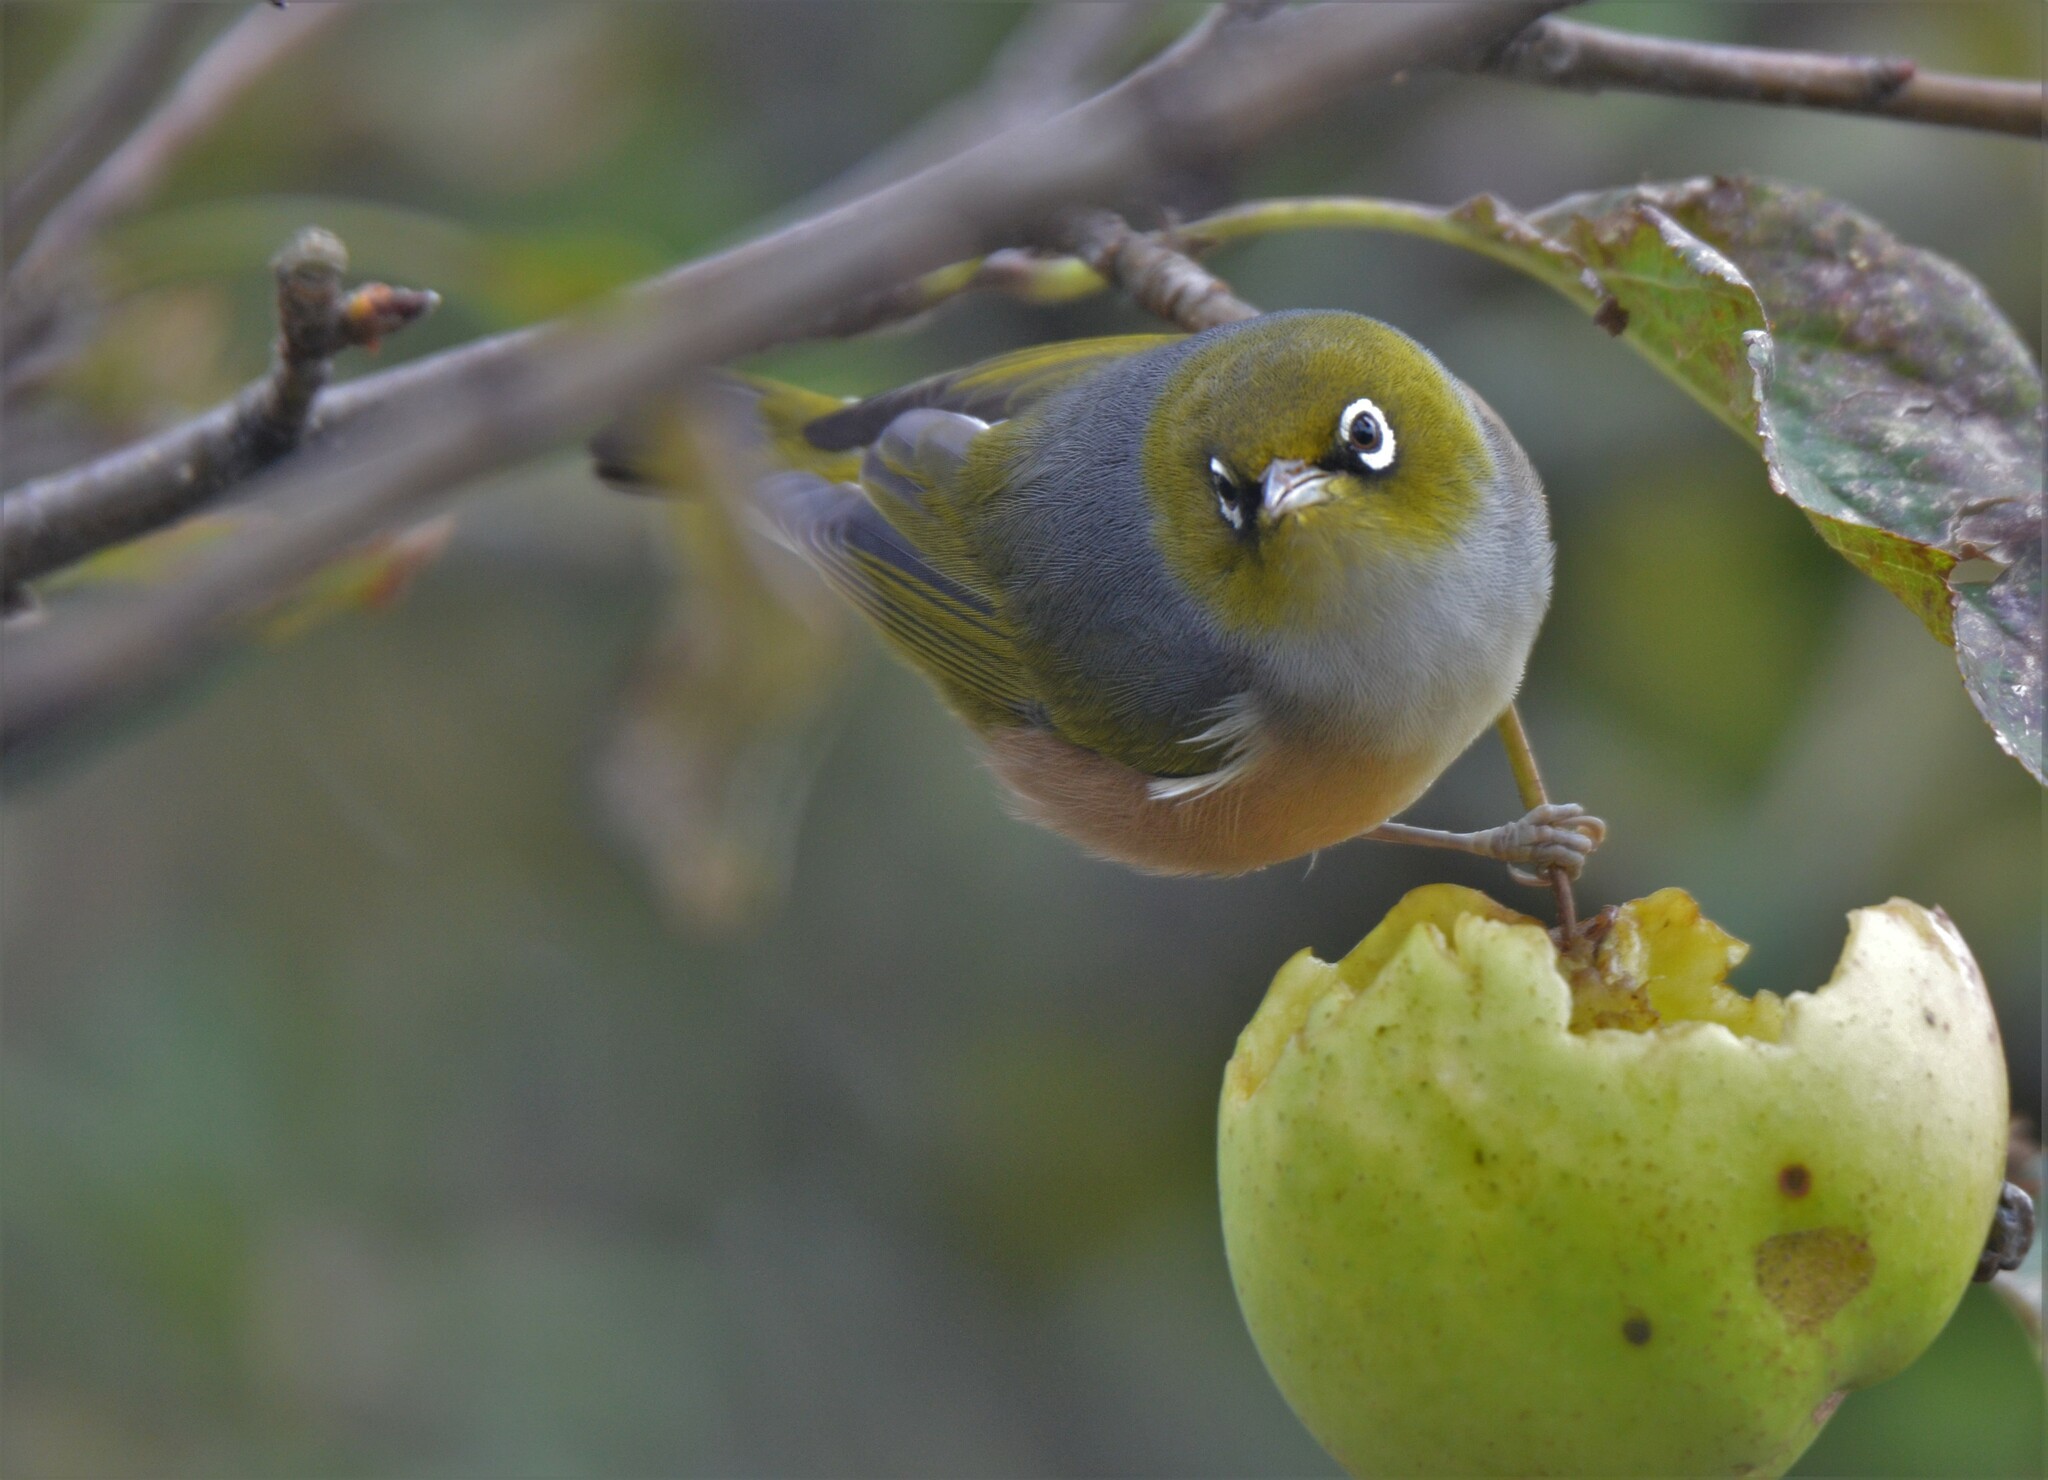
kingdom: Animalia
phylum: Chordata
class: Aves
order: Passeriformes
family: Zosteropidae
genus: Zosterops
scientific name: Zosterops lateralis
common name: Silvereye
